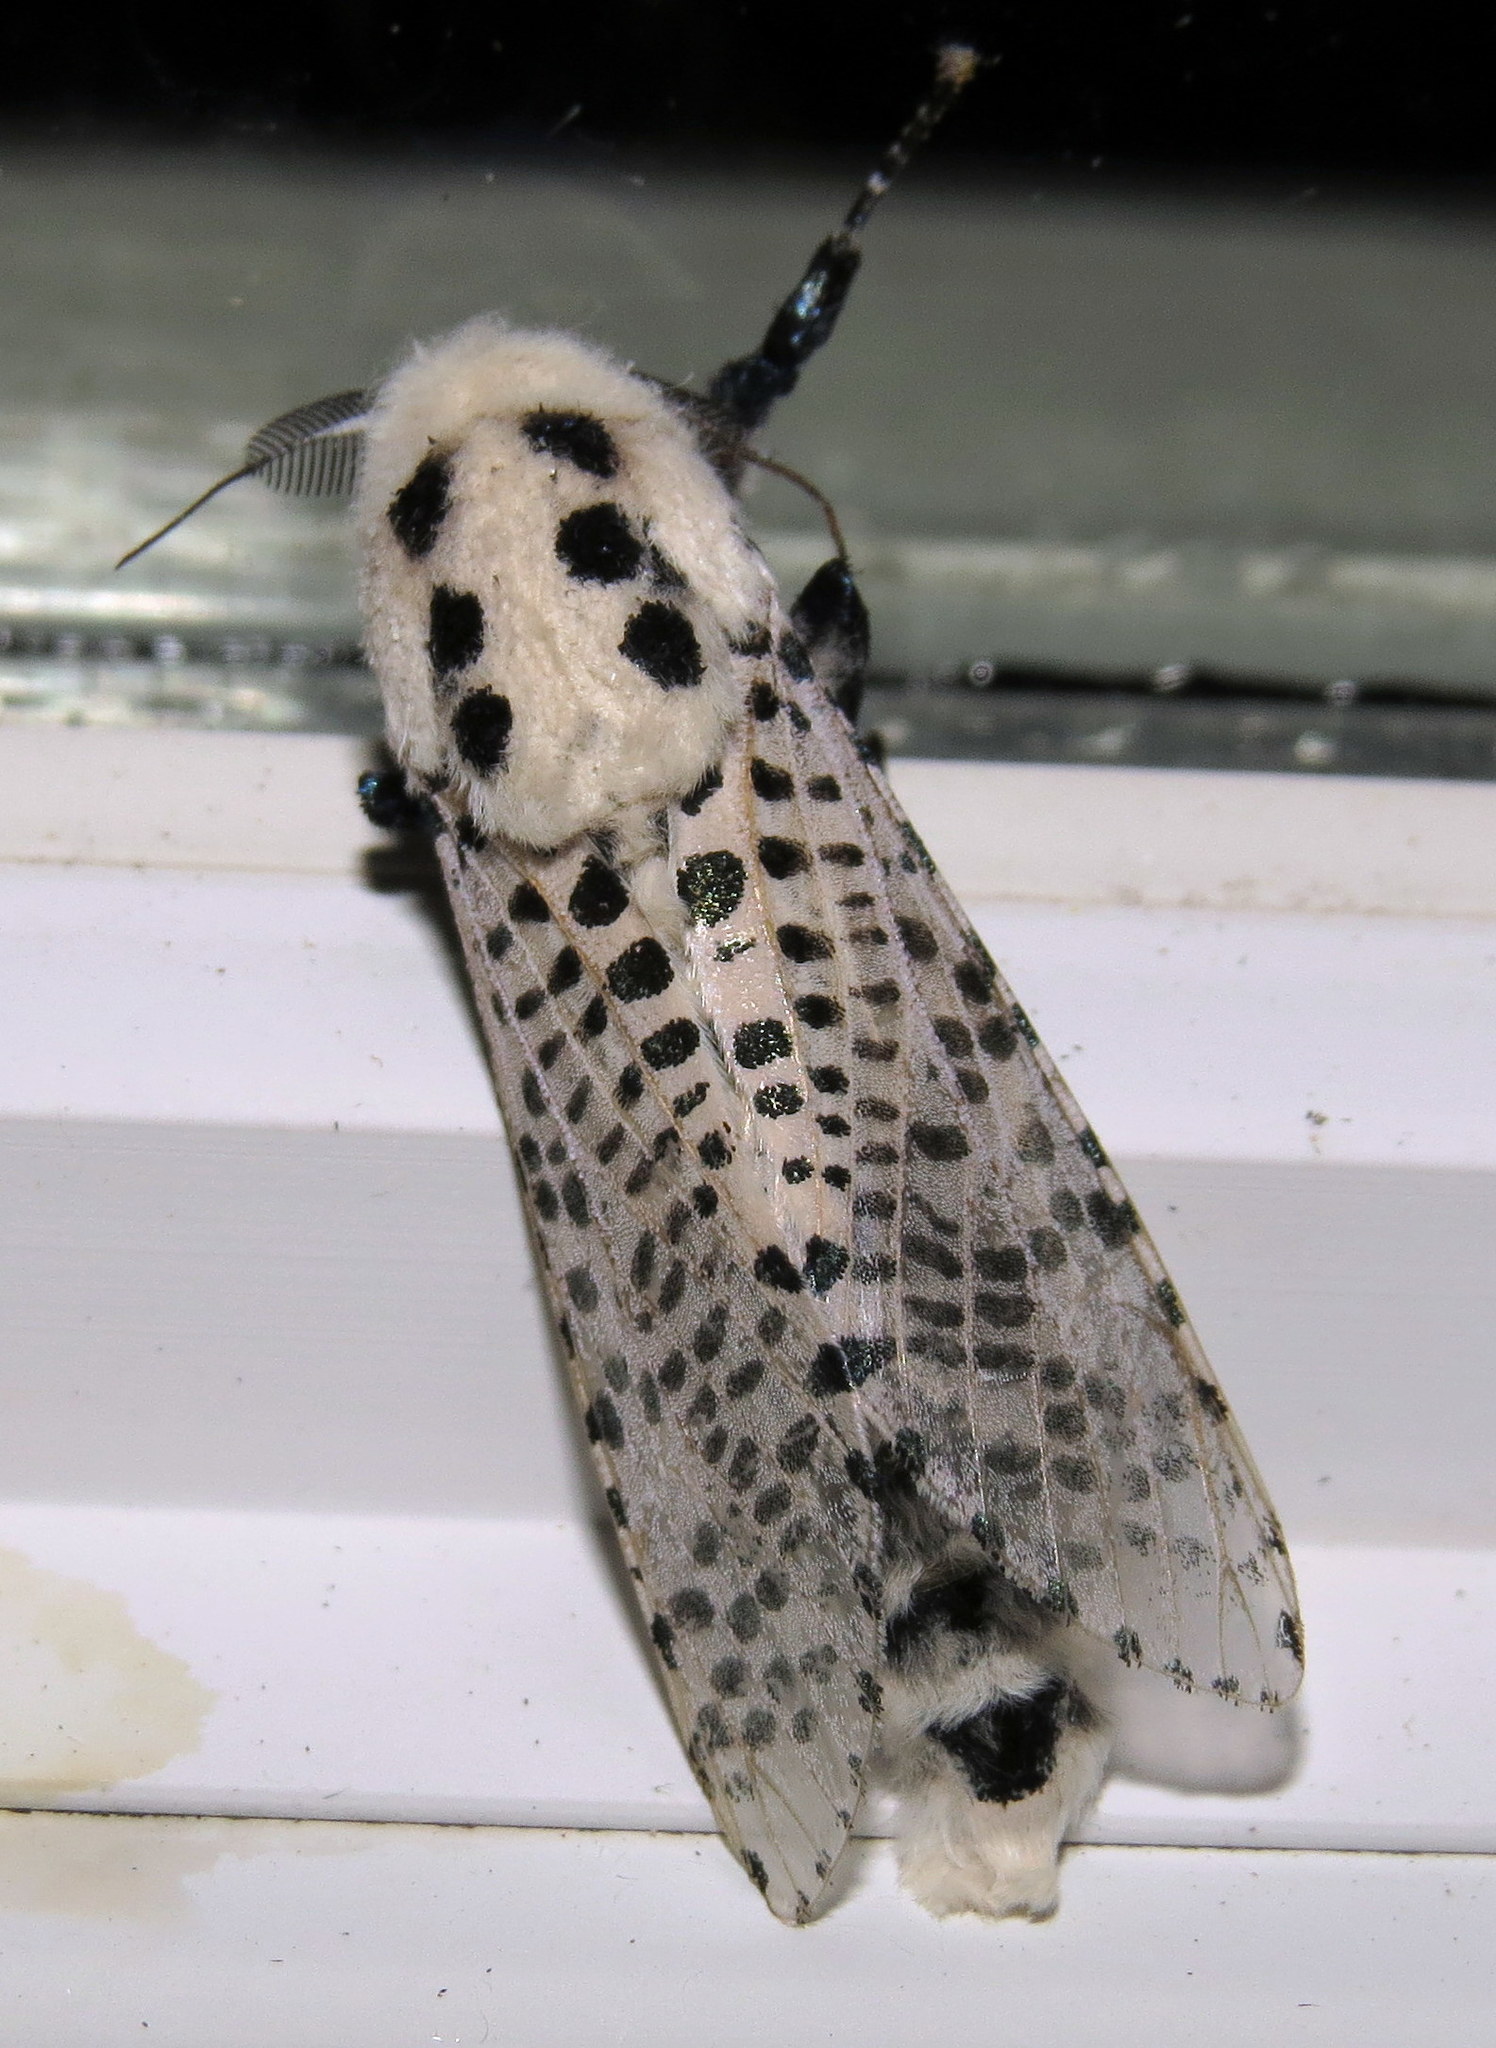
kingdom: Animalia
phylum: Arthropoda
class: Insecta
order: Lepidoptera
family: Cossidae
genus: Zeuzera
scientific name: Zeuzera pyrina
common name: Leopard moth
